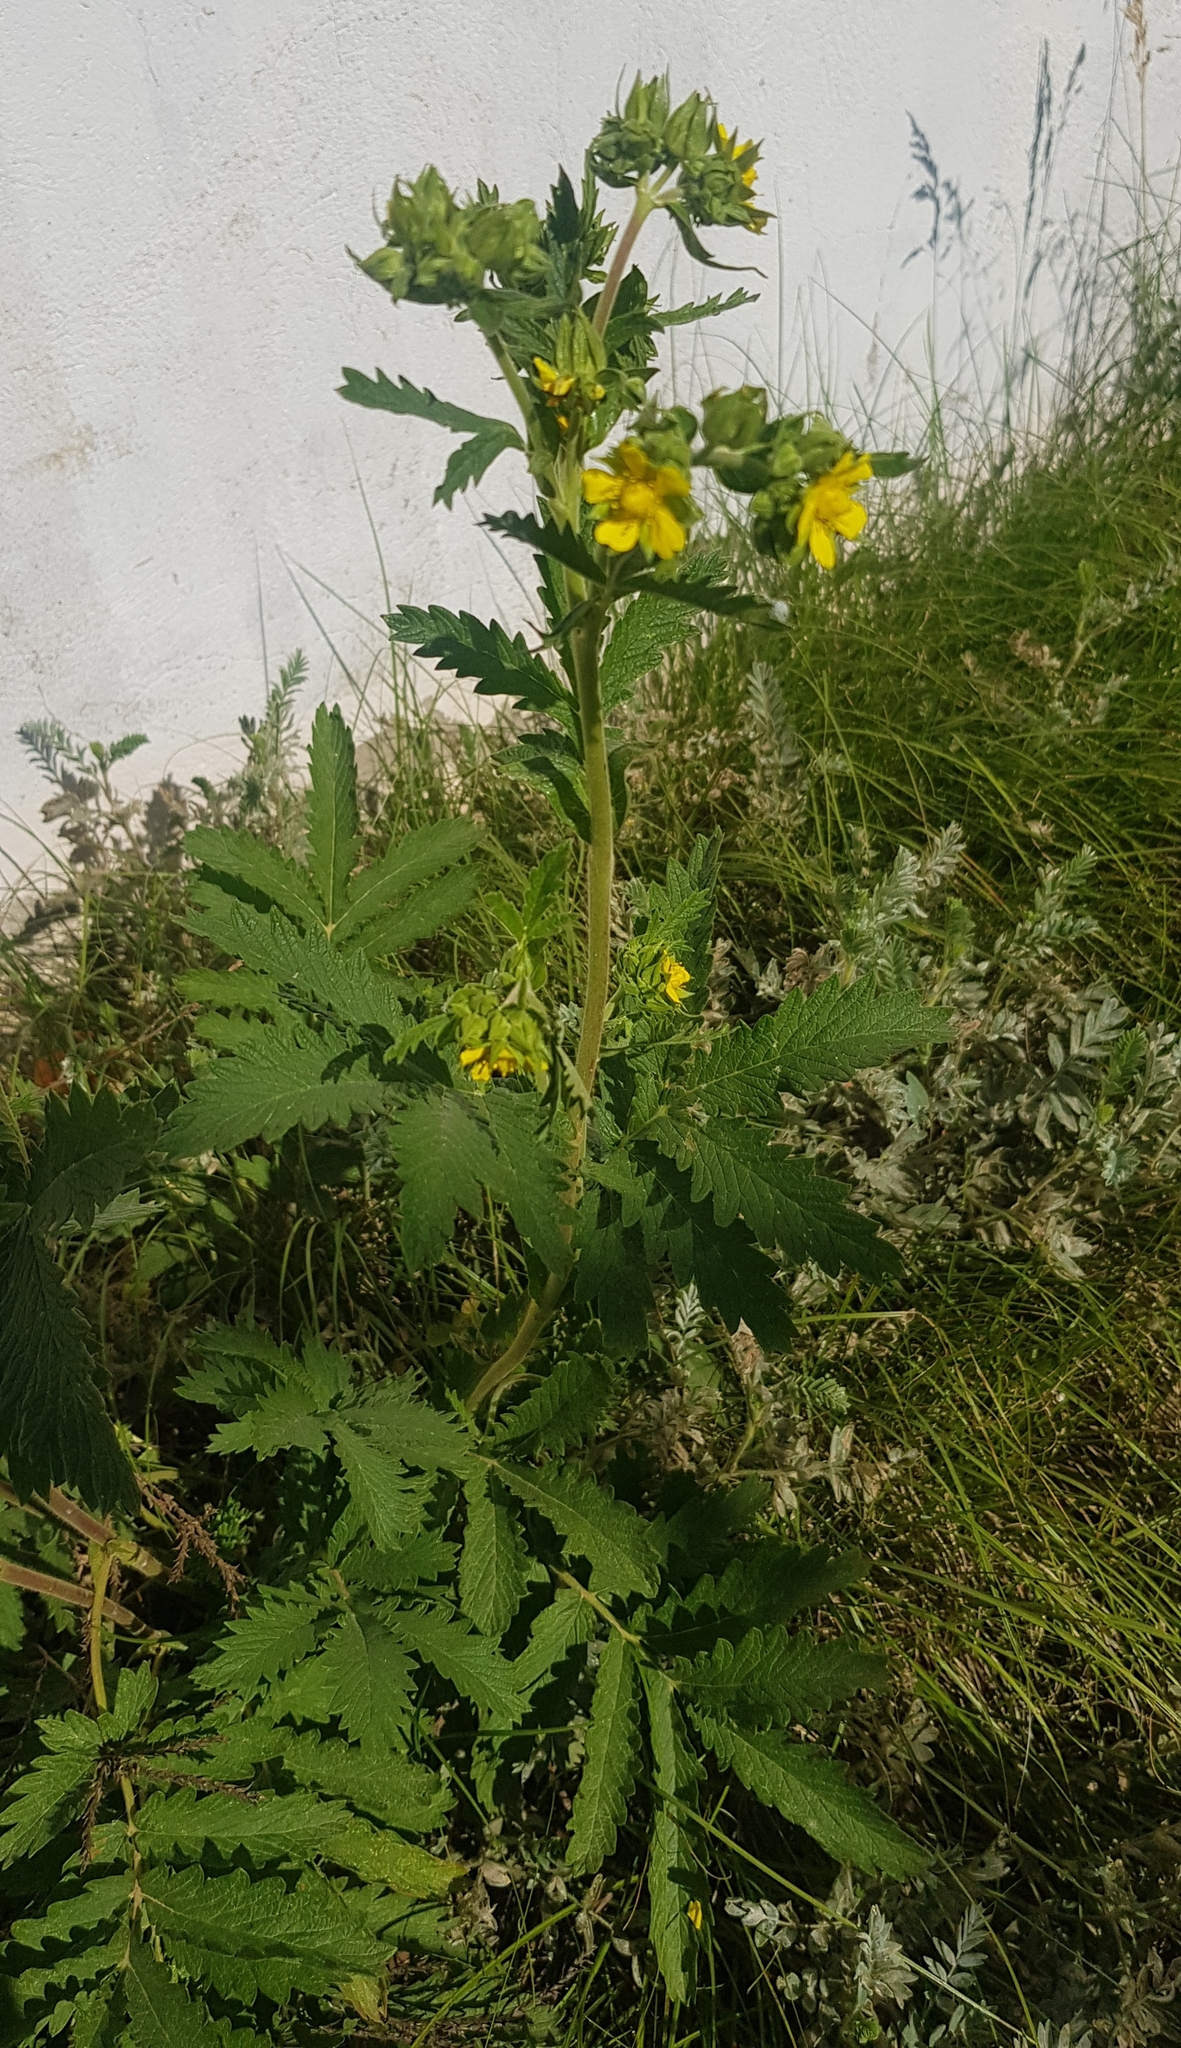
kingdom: Plantae
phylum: Tracheophyta
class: Magnoliopsida
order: Rosales
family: Rosaceae
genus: Potentilla
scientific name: Potentilla tanacetifolia
